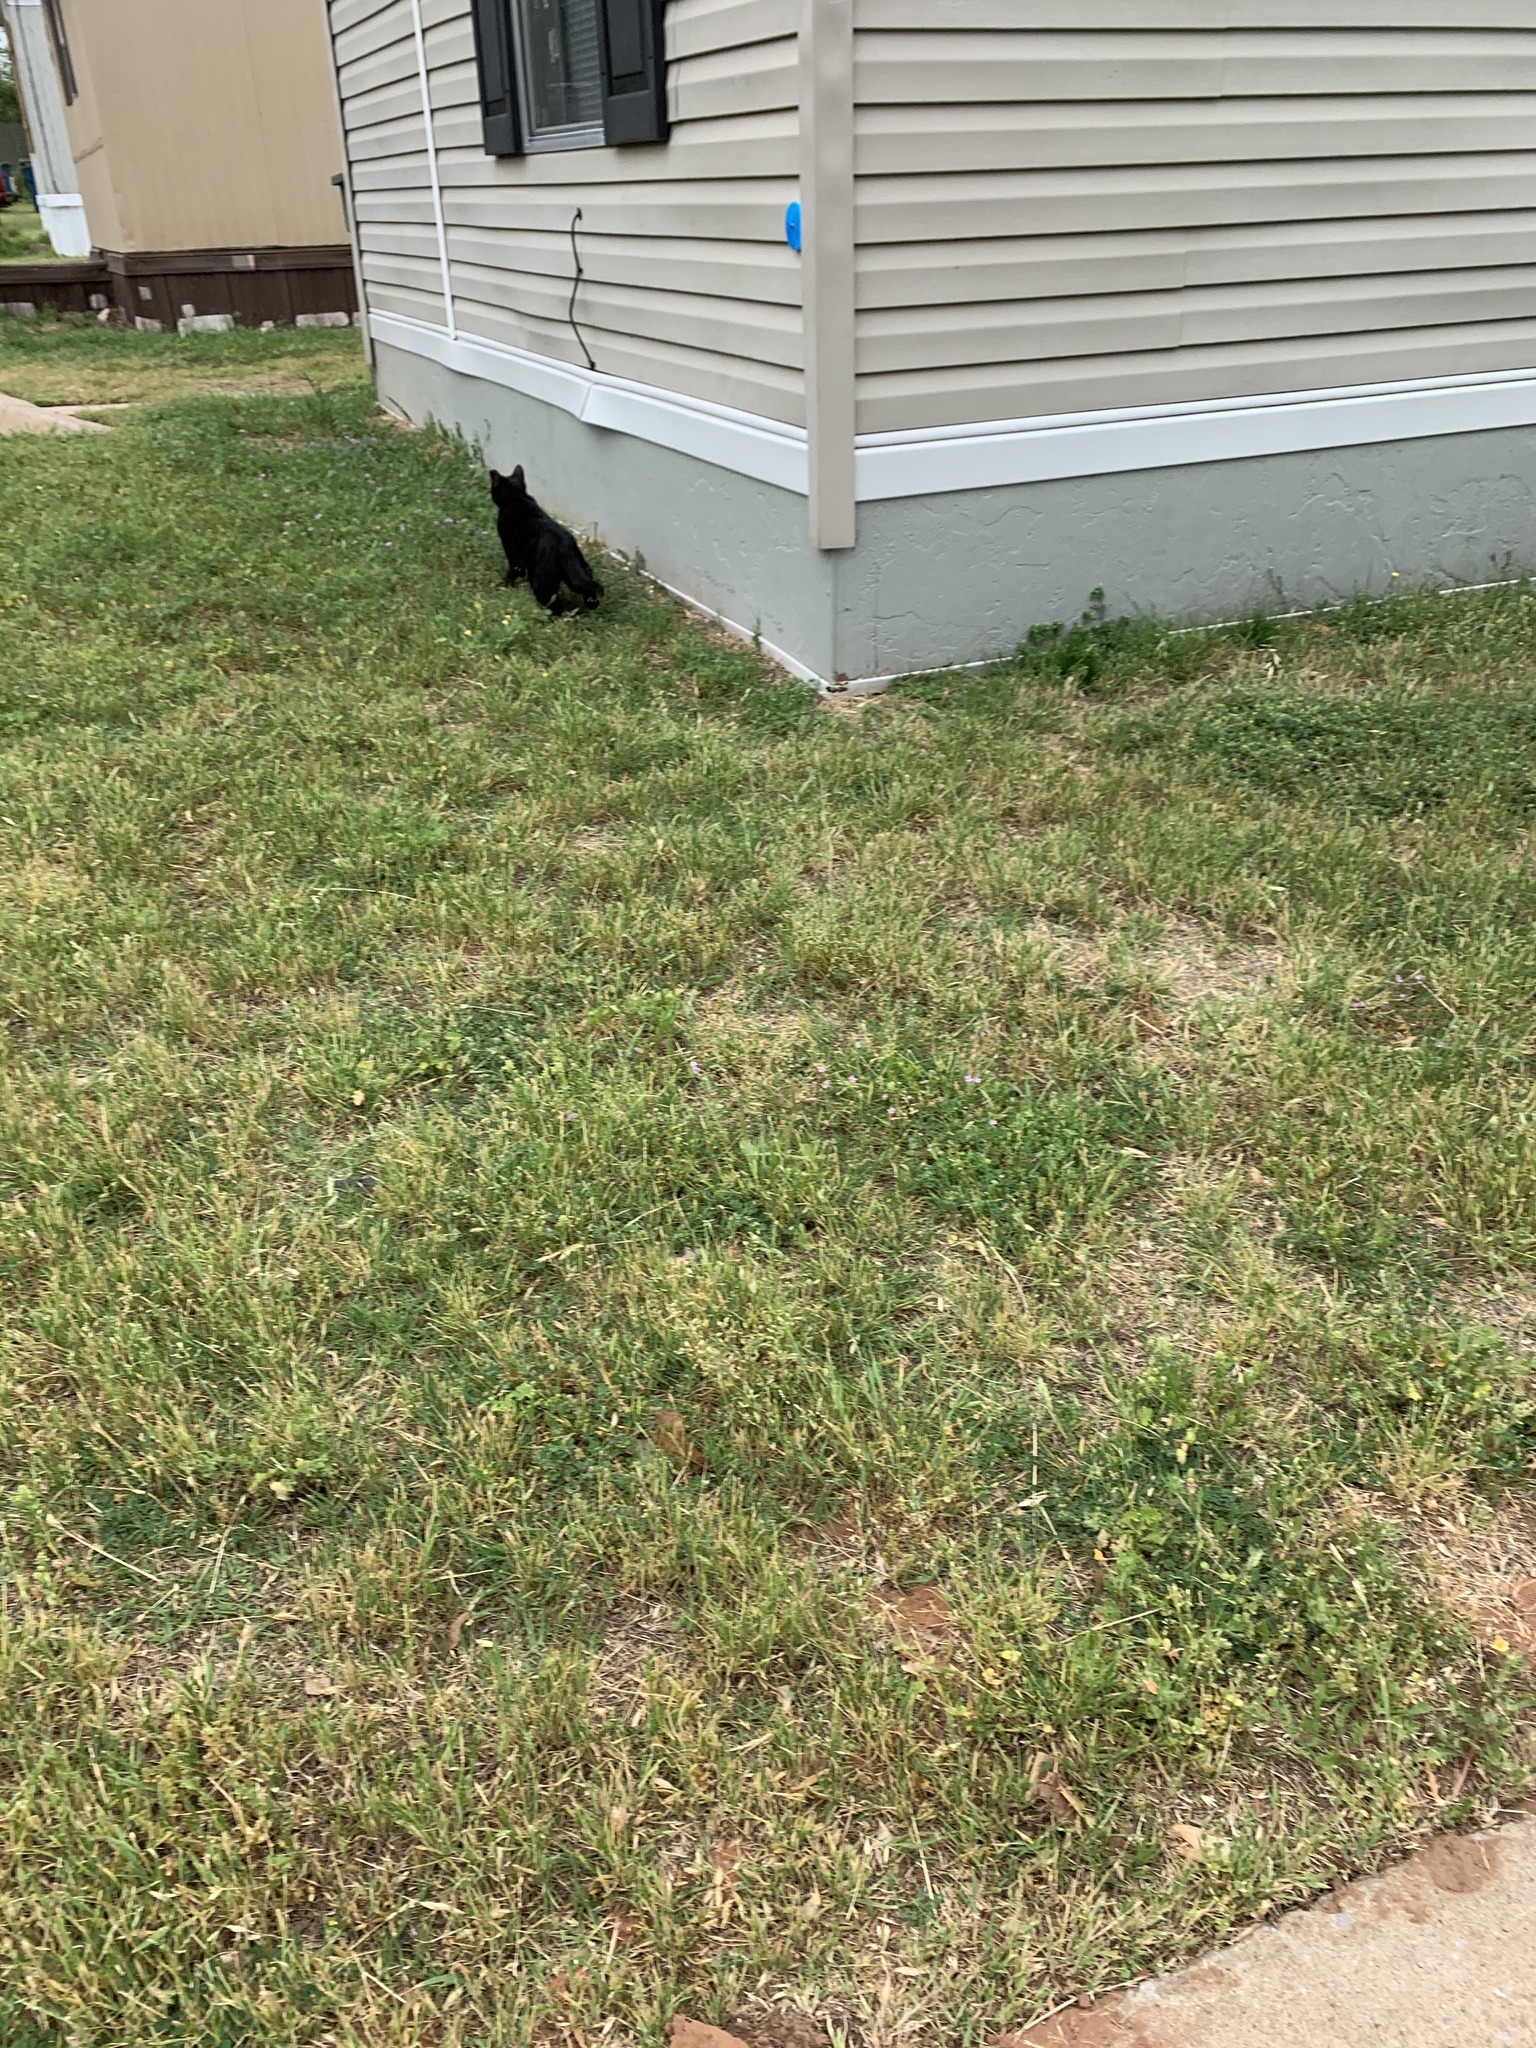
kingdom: Animalia
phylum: Chordata
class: Mammalia
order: Carnivora
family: Felidae
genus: Felis
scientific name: Felis catus
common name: Domestic cat
